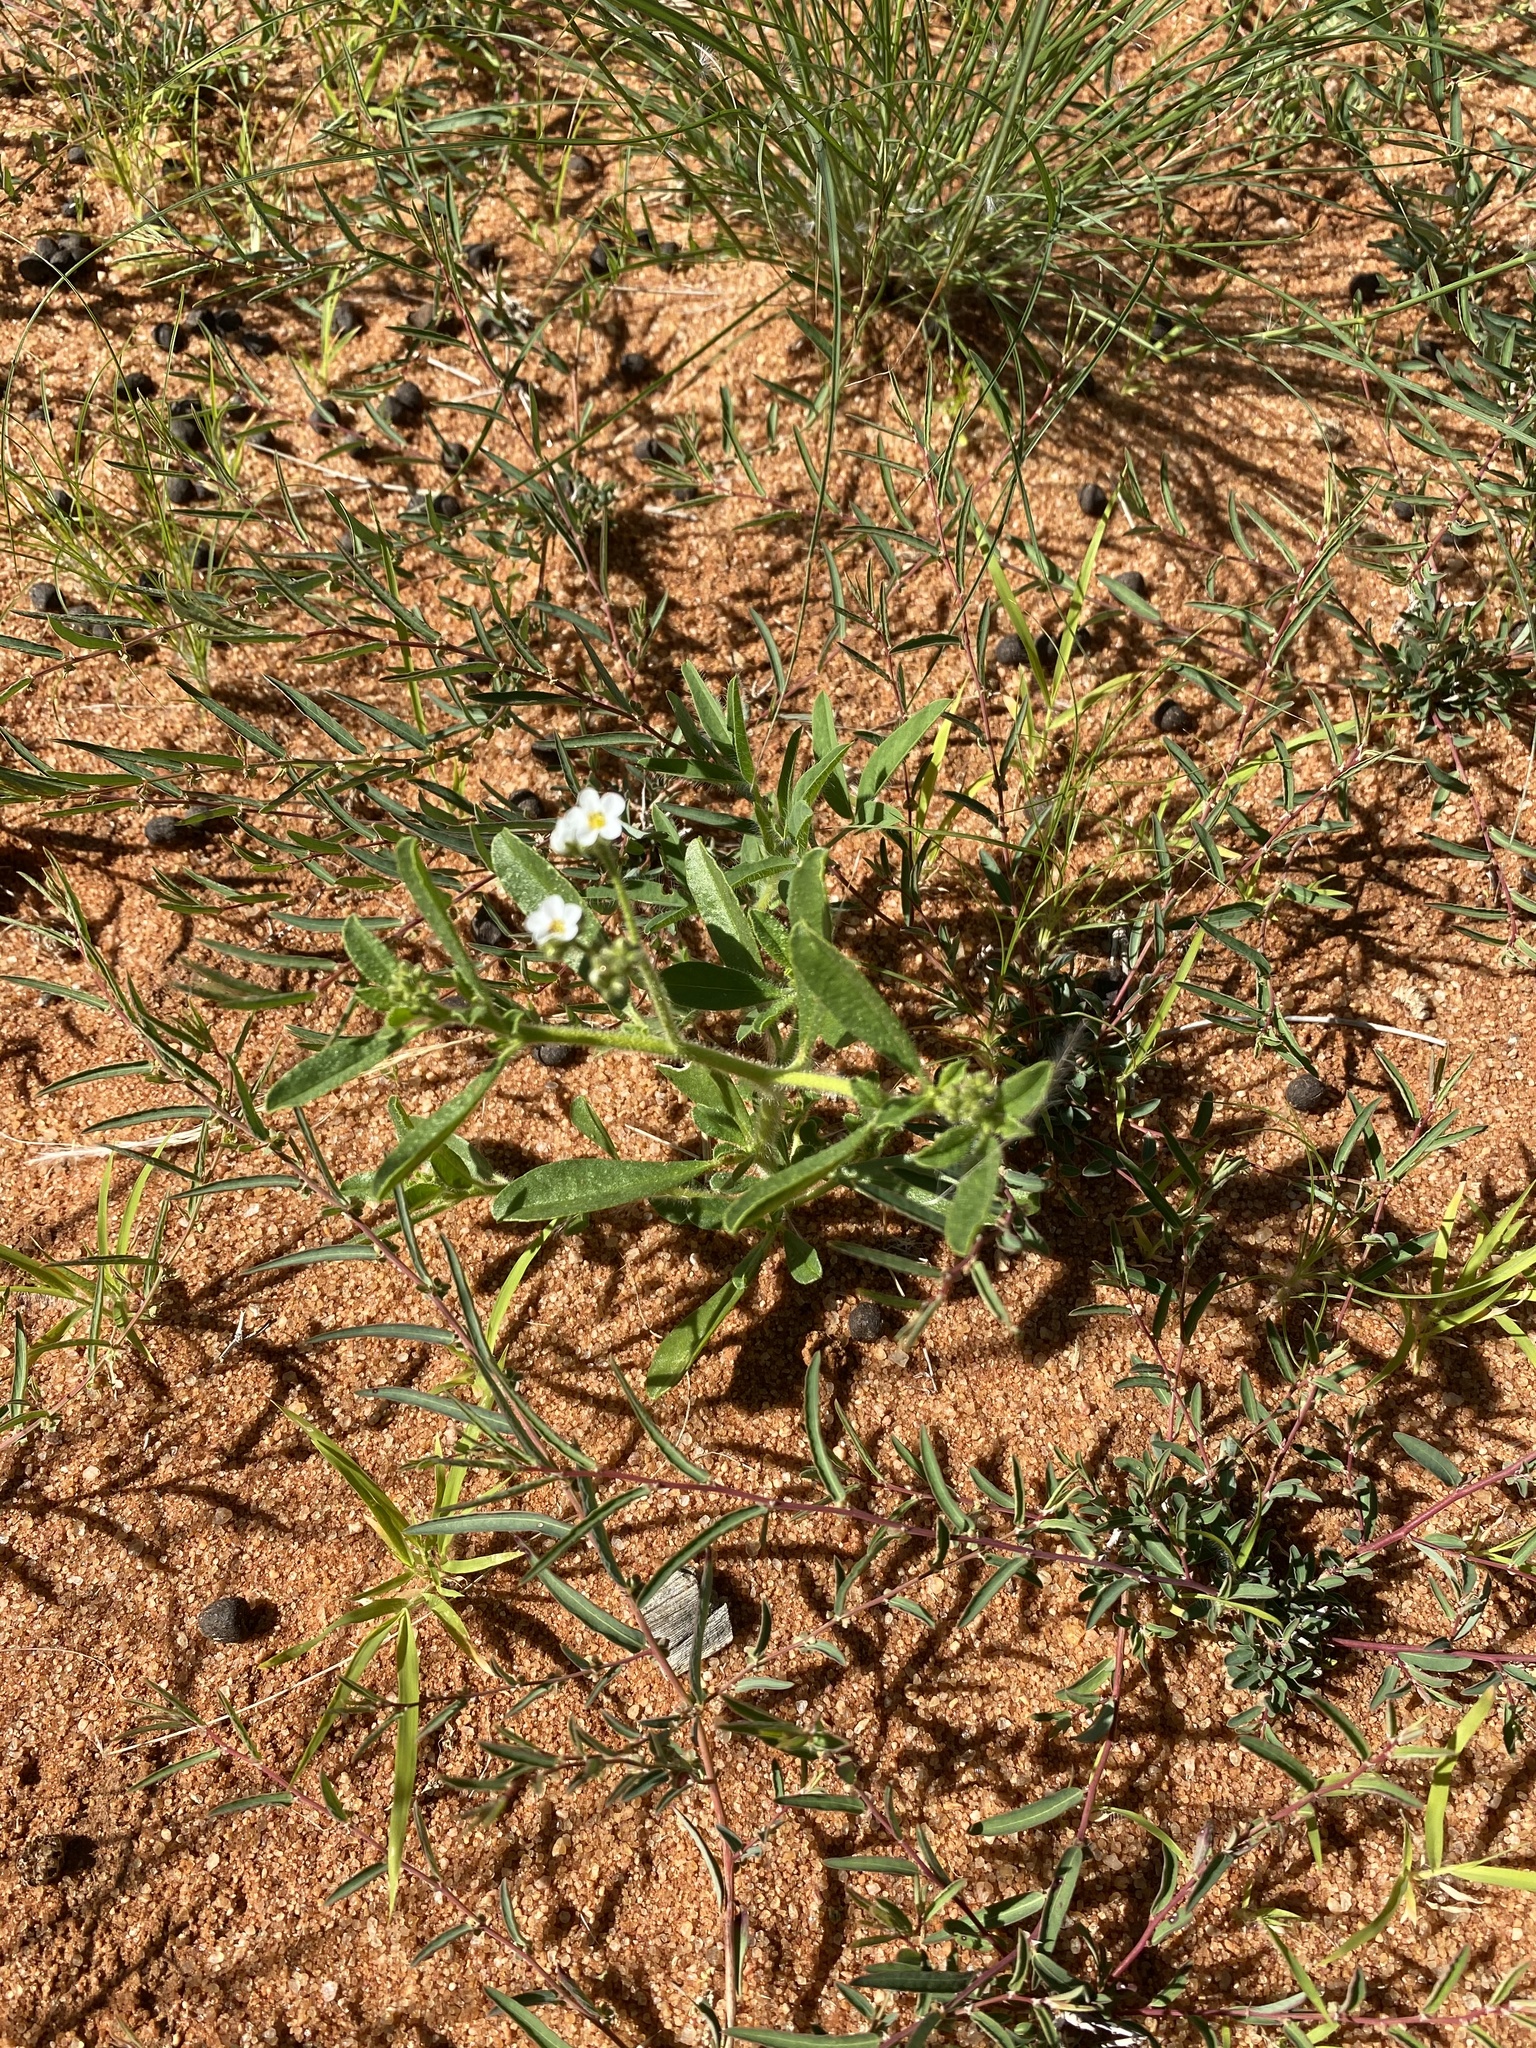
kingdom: Plantae
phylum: Tracheophyta
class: Magnoliopsida
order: Caryophyllales
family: Limeaceae
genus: Limeum
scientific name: Limeum myosotis
